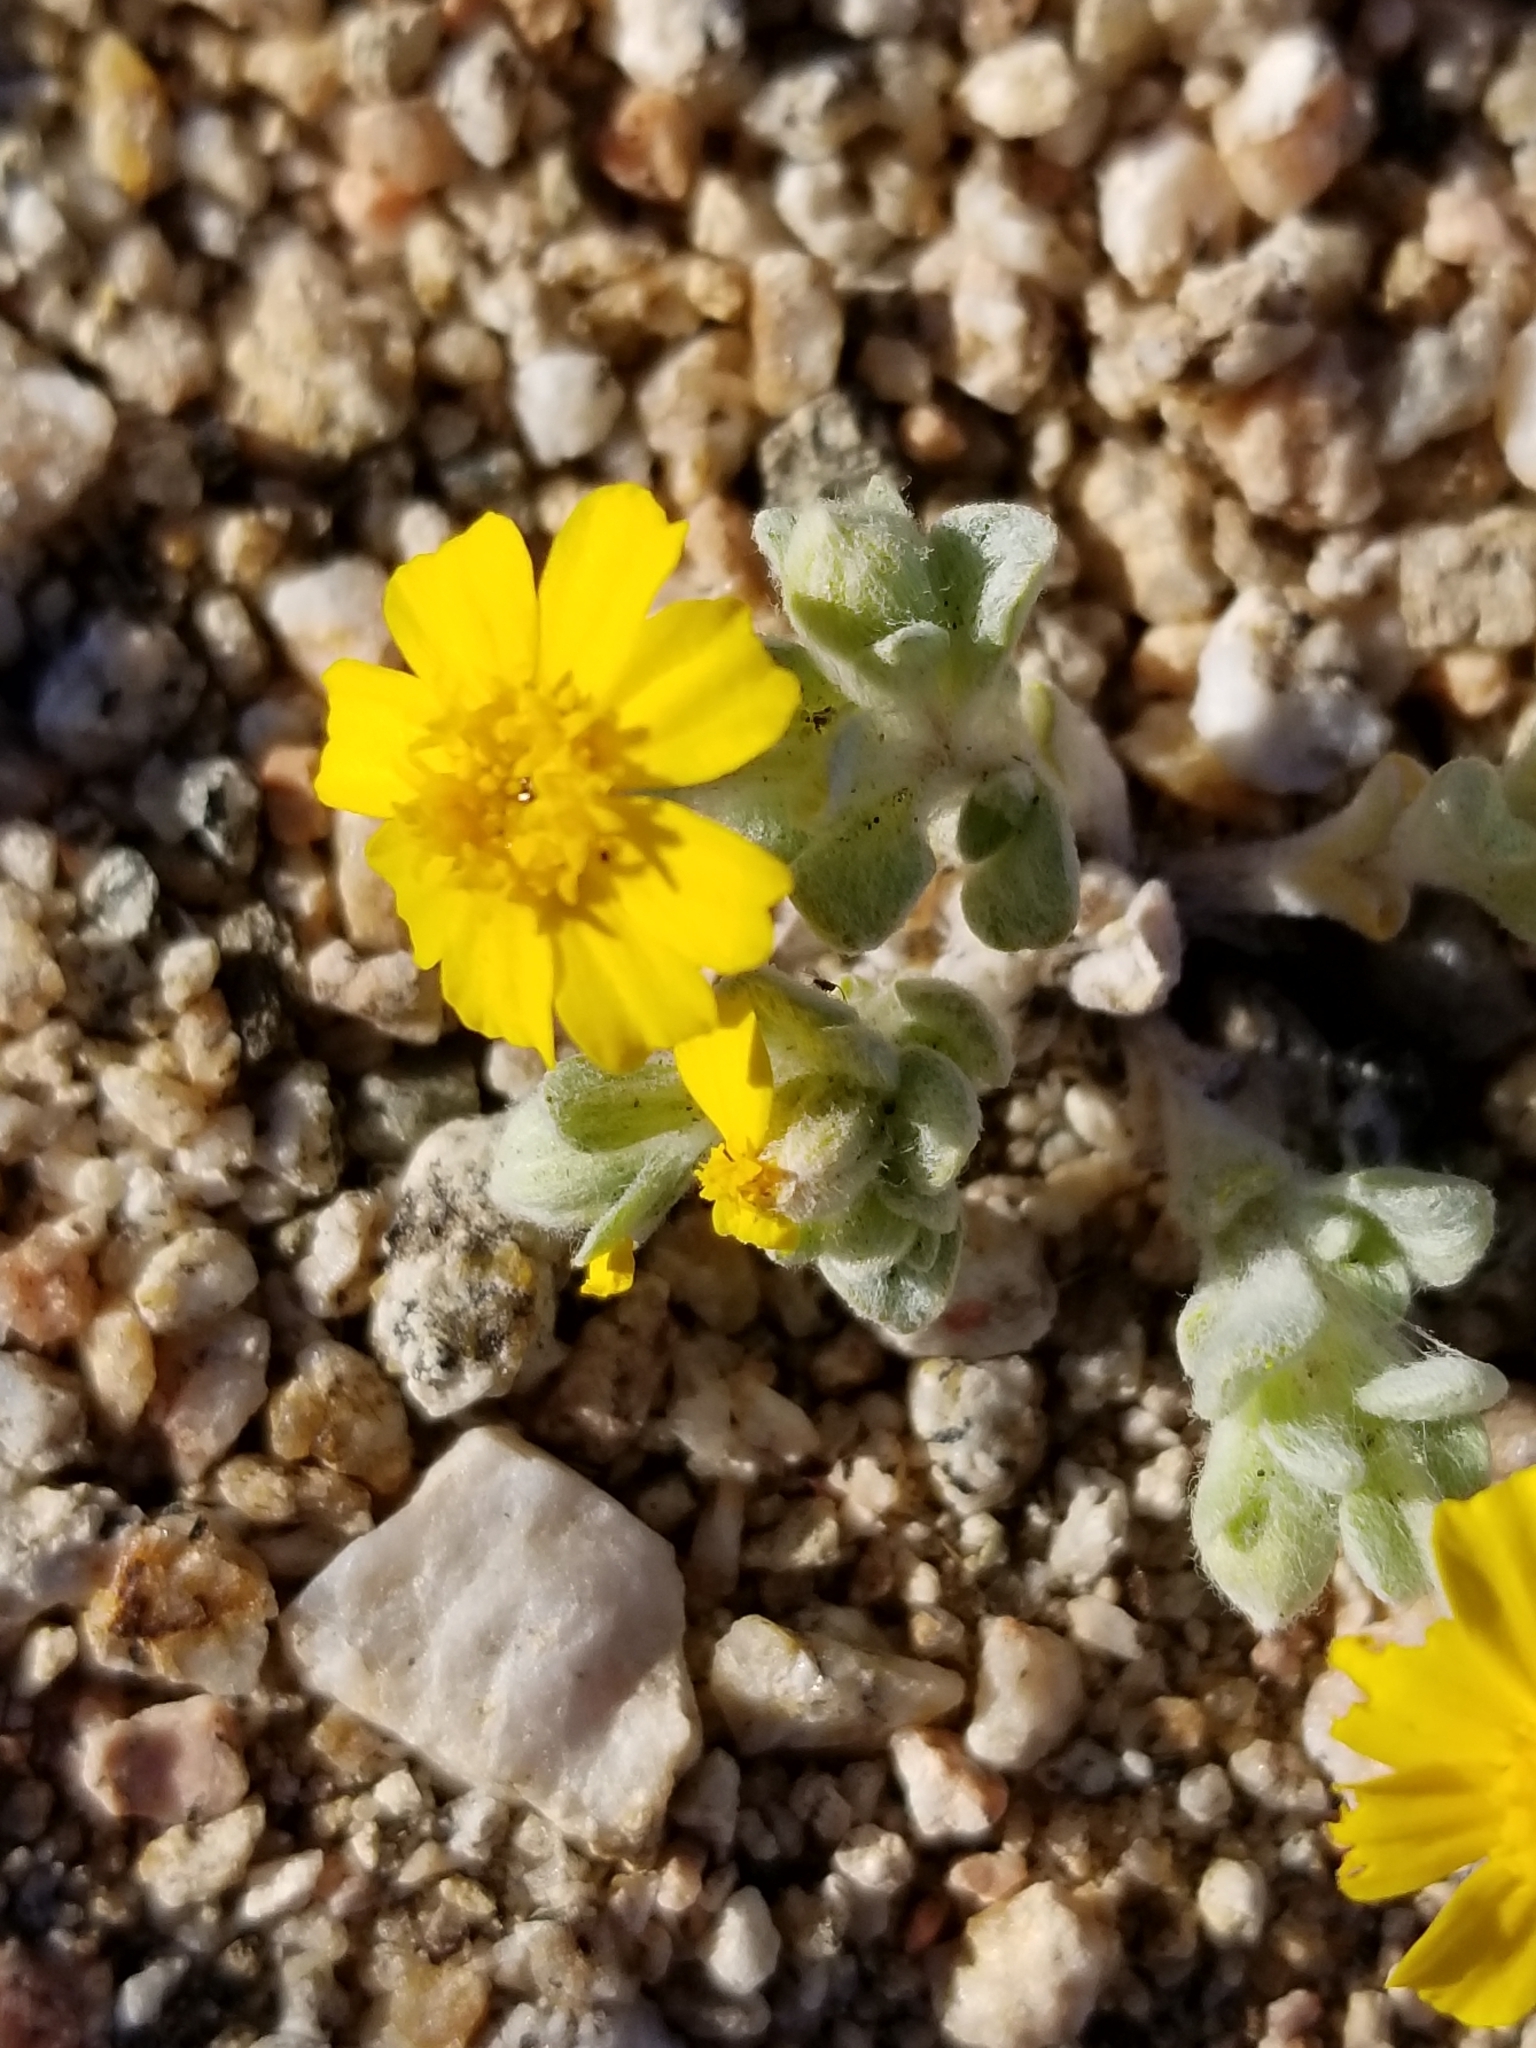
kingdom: Plantae
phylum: Tracheophyta
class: Magnoliopsida
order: Asterales
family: Asteraceae
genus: Eriophyllum
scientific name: Eriophyllum wallacei
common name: Wallace's woolly daisy
